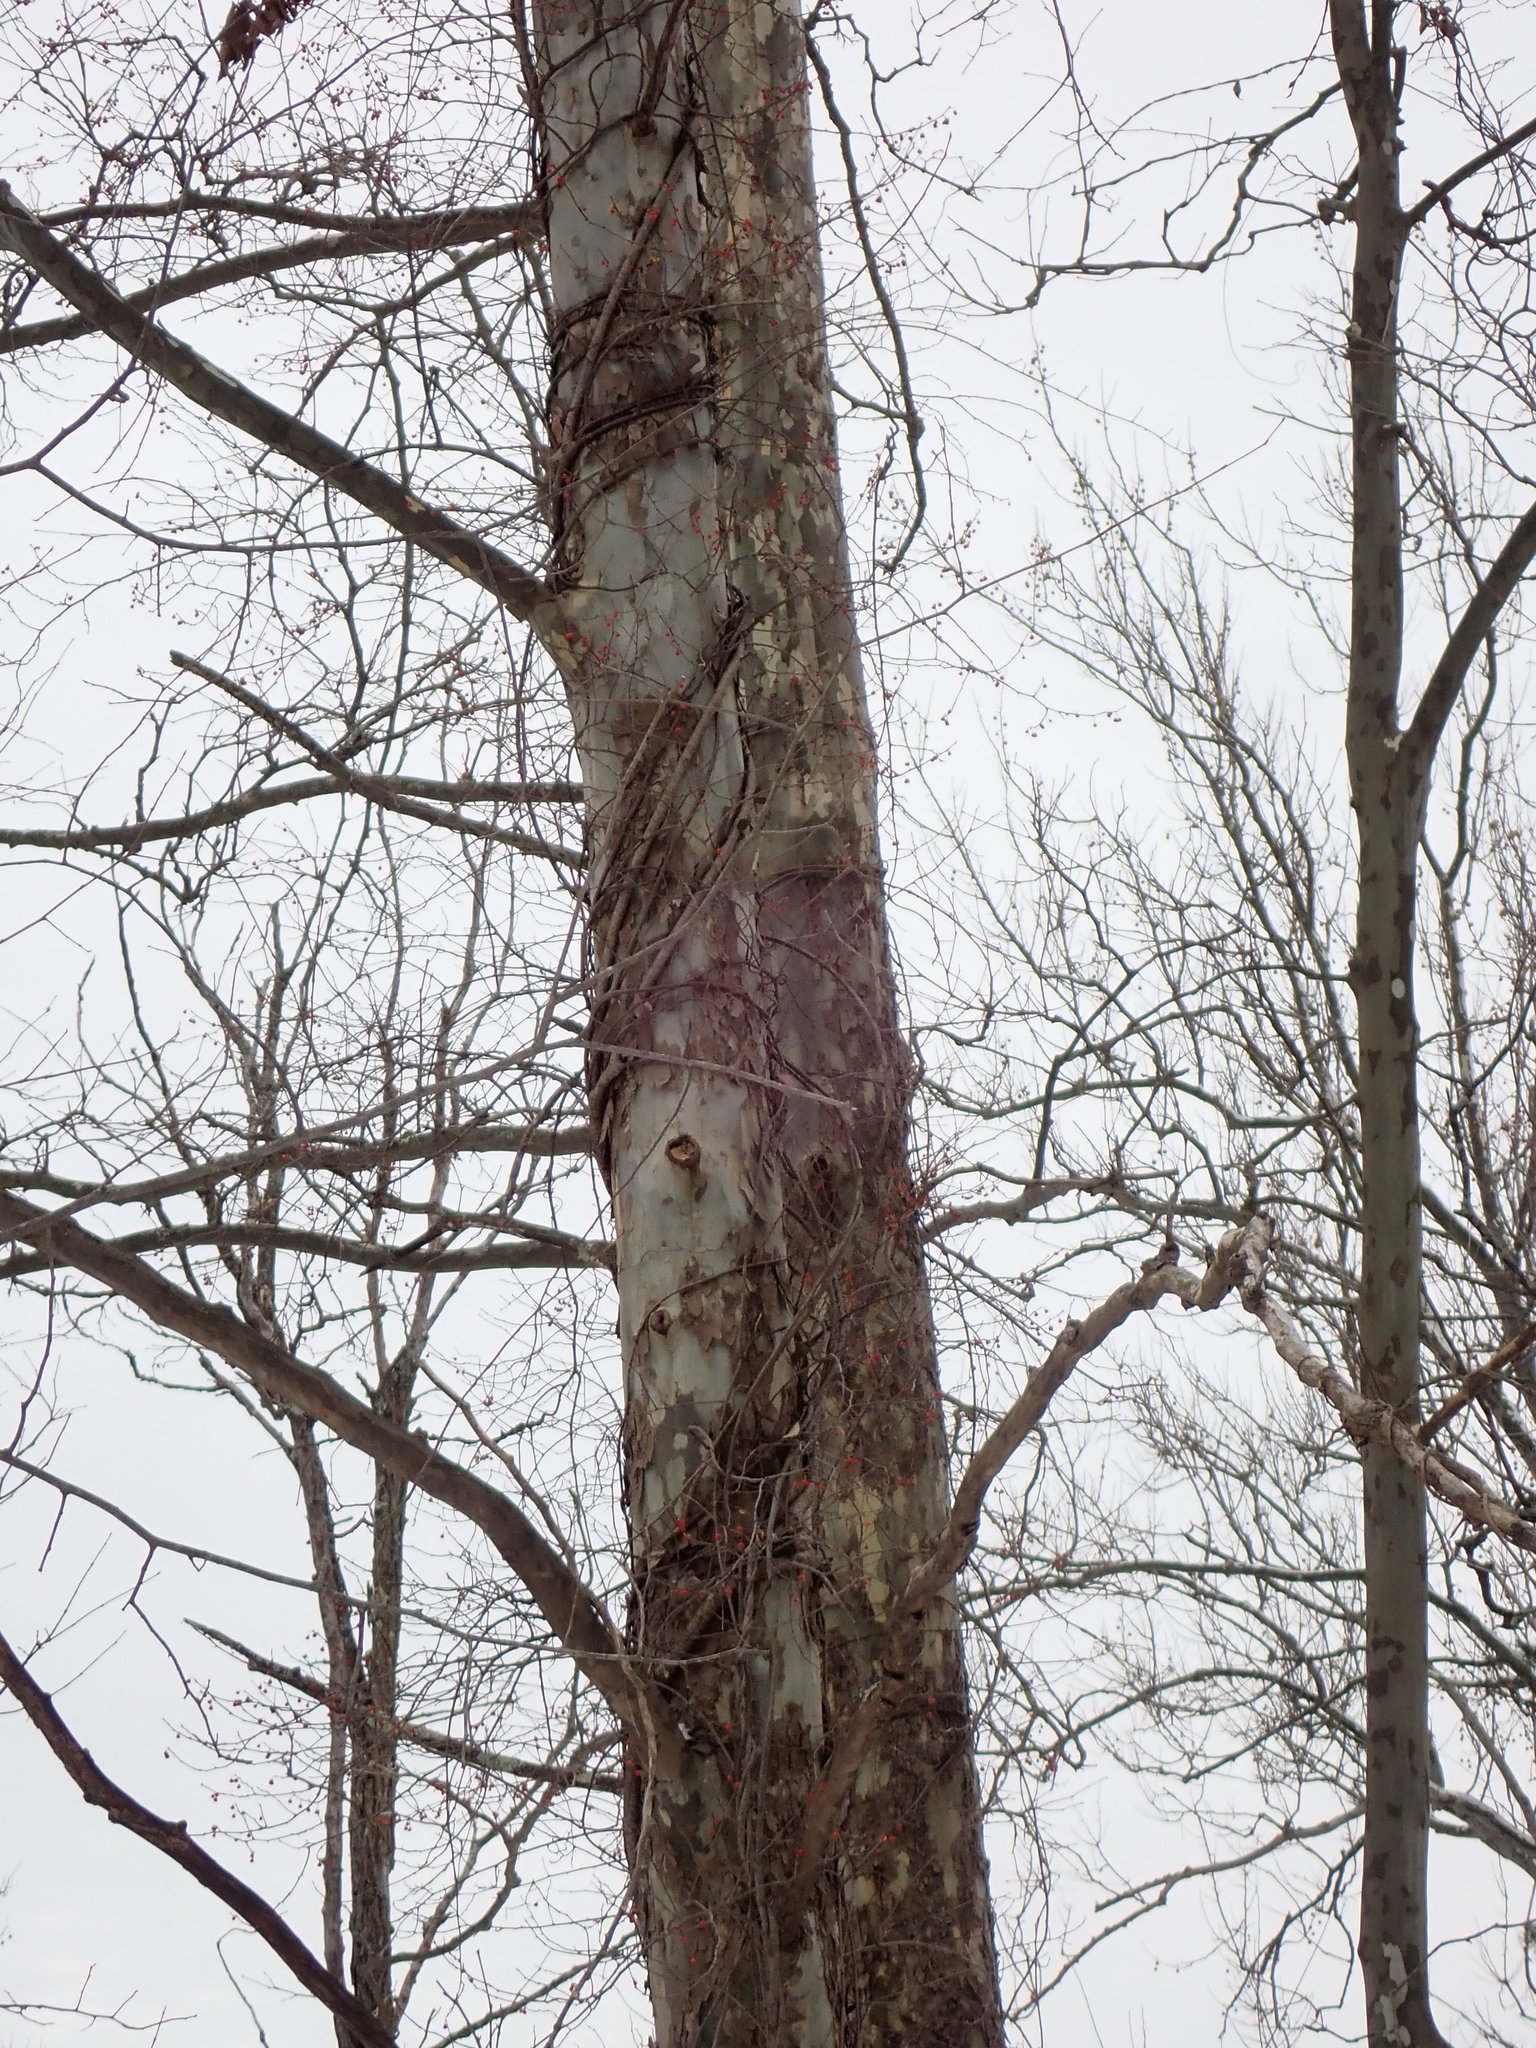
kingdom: Plantae
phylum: Tracheophyta
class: Magnoliopsida
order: Proteales
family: Platanaceae
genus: Platanus
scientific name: Platanus occidentalis
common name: American sycamore
